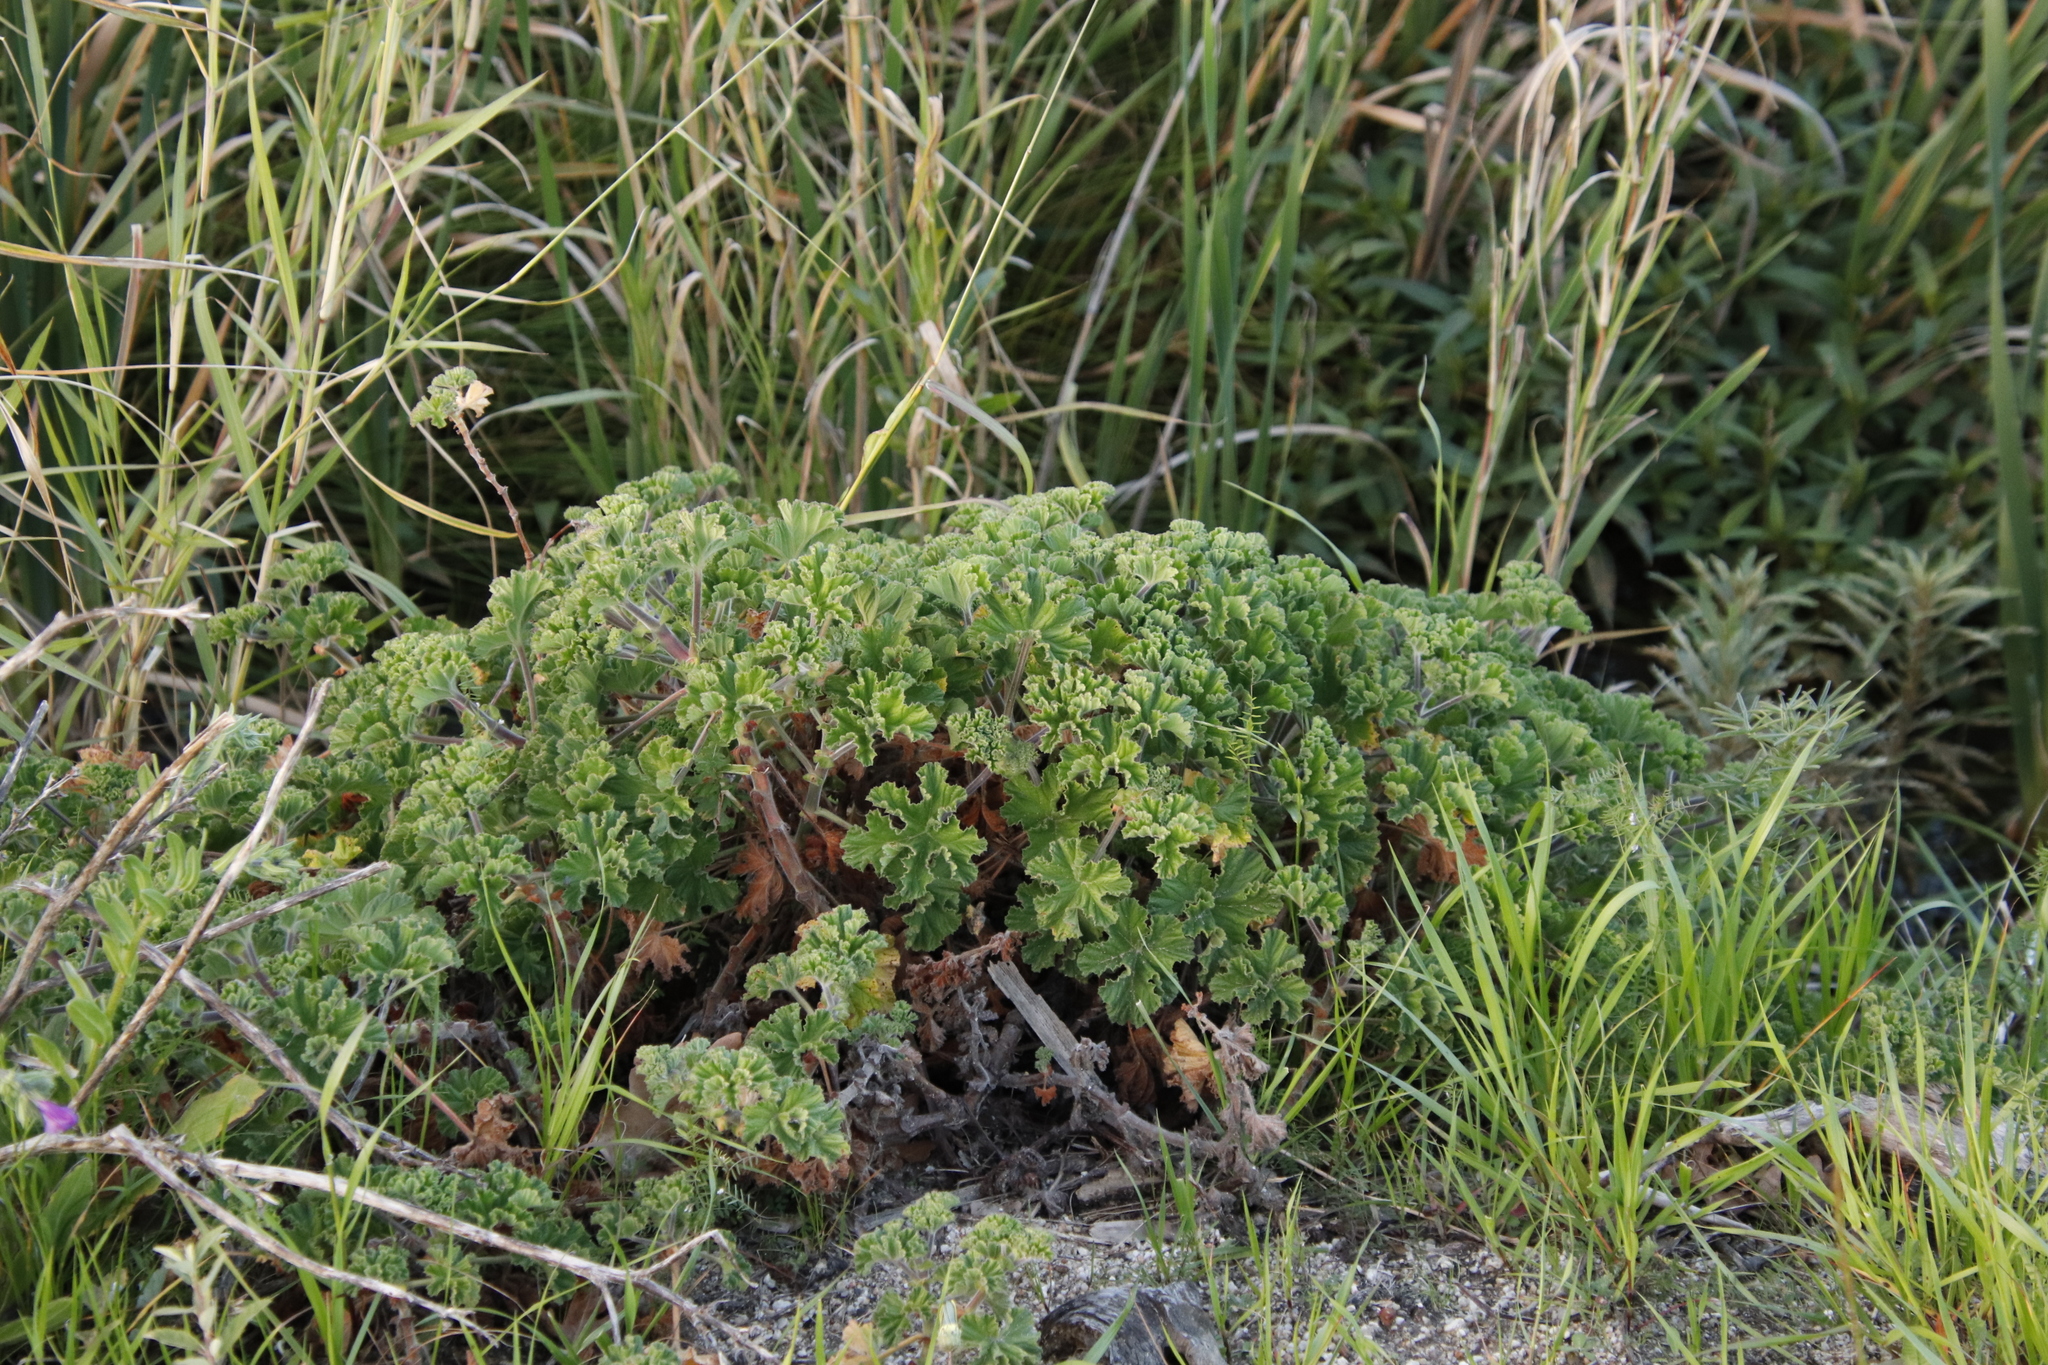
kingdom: Plantae
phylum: Tracheophyta
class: Magnoliopsida
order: Geraniales
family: Geraniaceae
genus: Pelargonium
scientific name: Pelargonium capitatum
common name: Rose scented geranium
